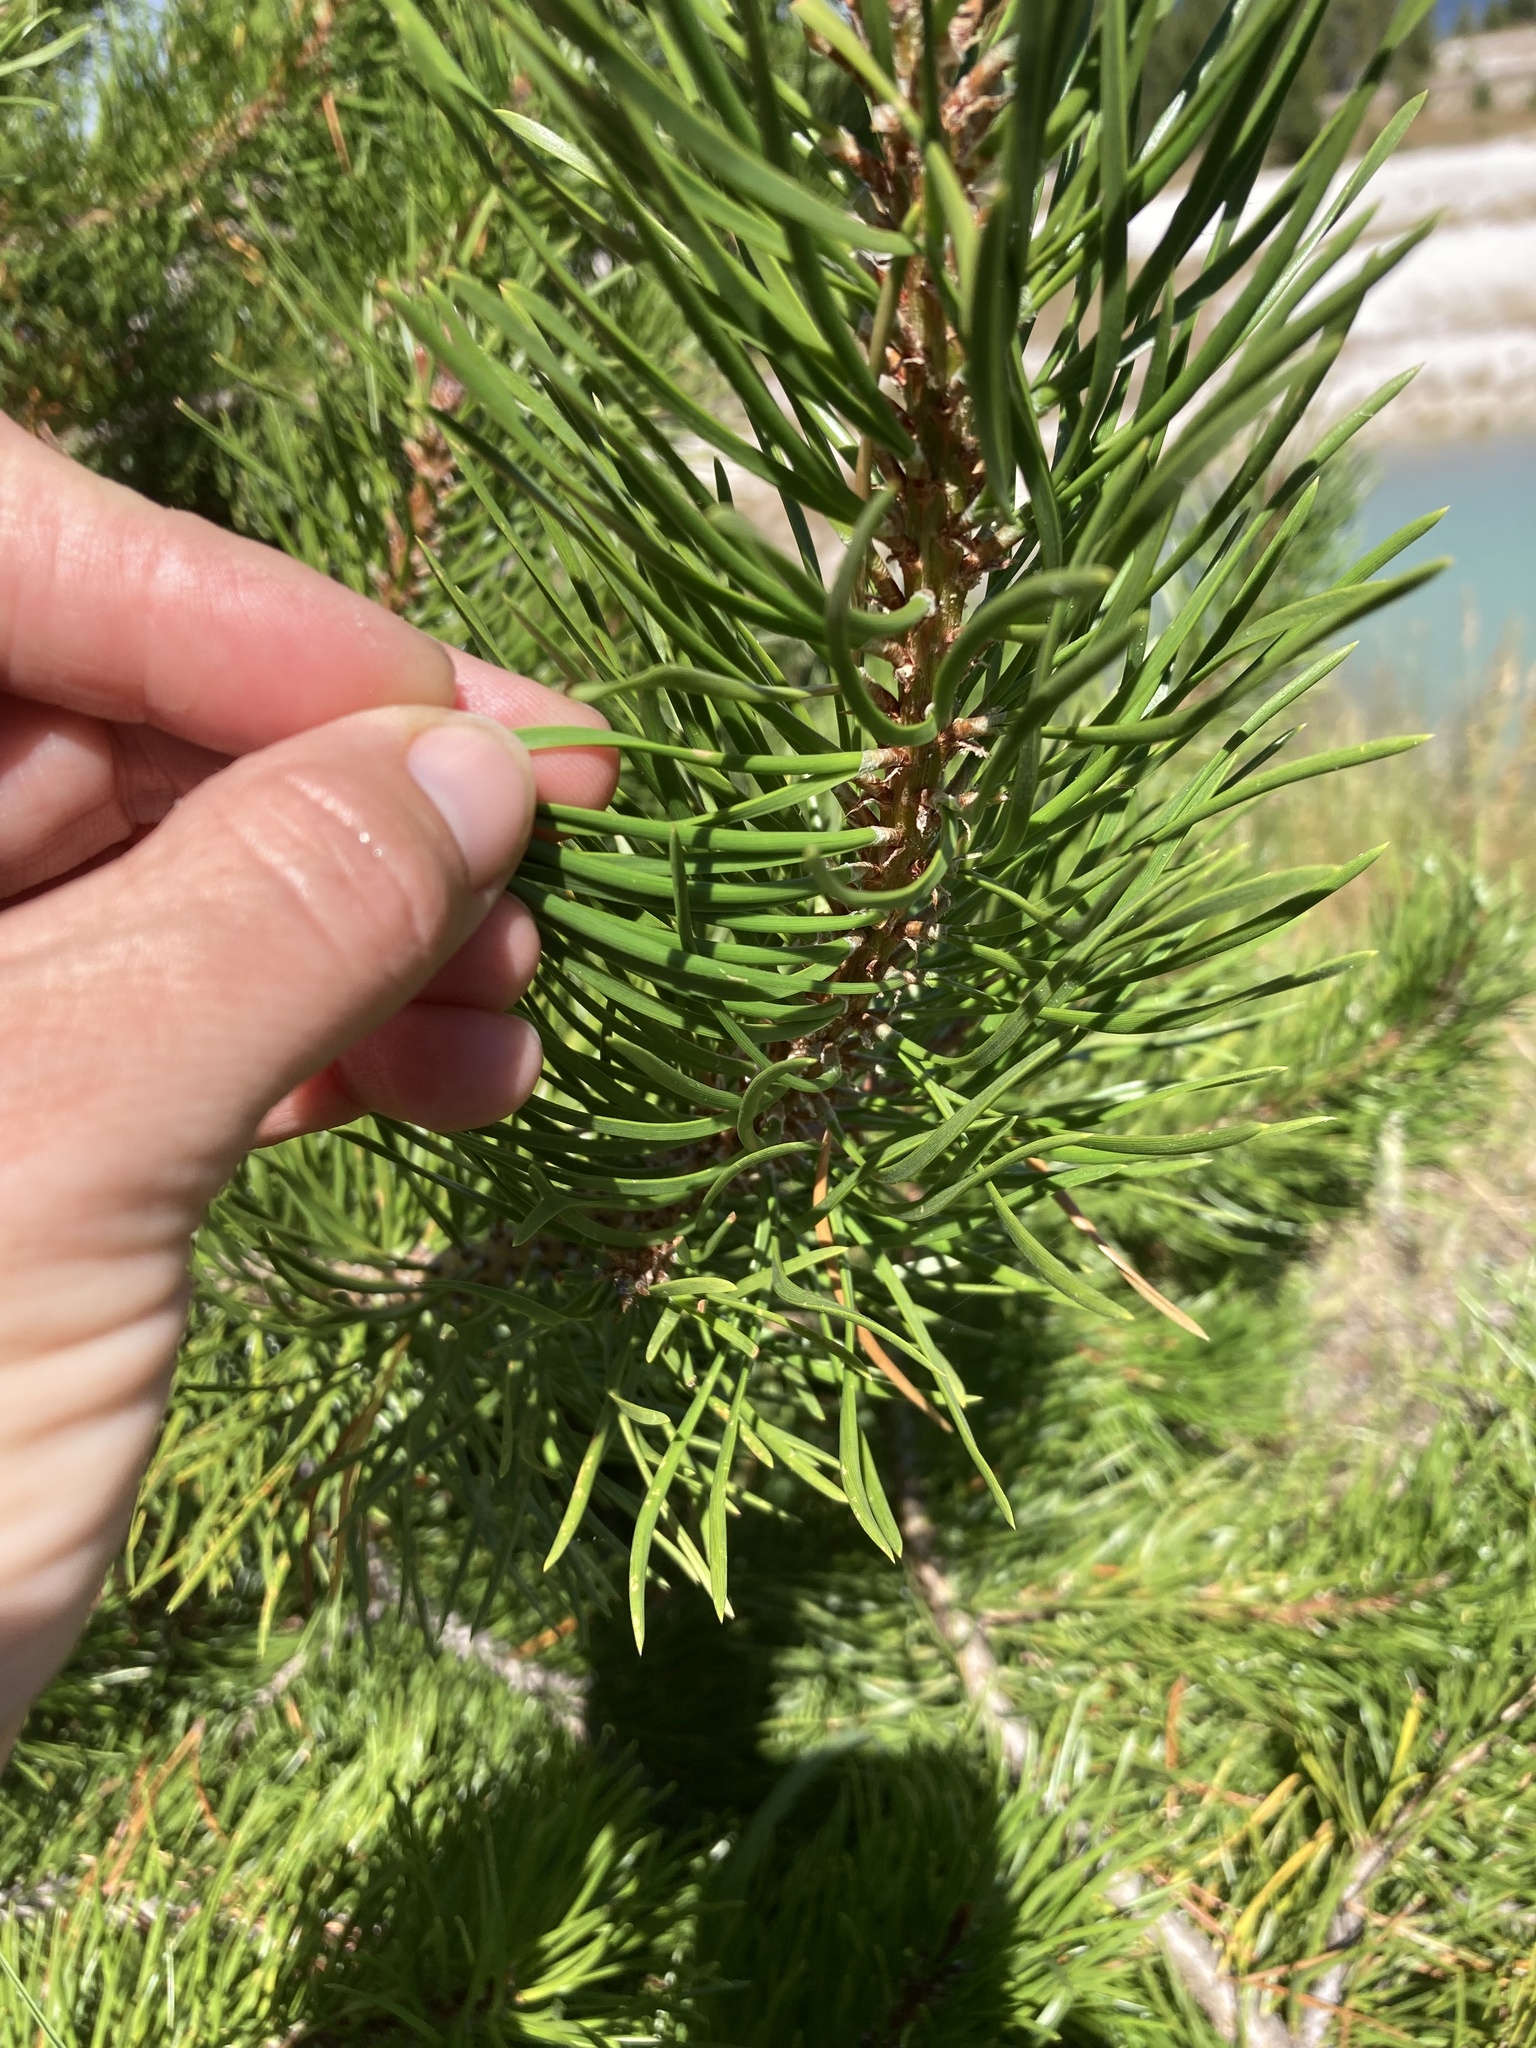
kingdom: Plantae
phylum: Tracheophyta
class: Pinopsida
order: Pinales
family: Pinaceae
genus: Pinus
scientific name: Pinus contorta
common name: Lodgepole pine
